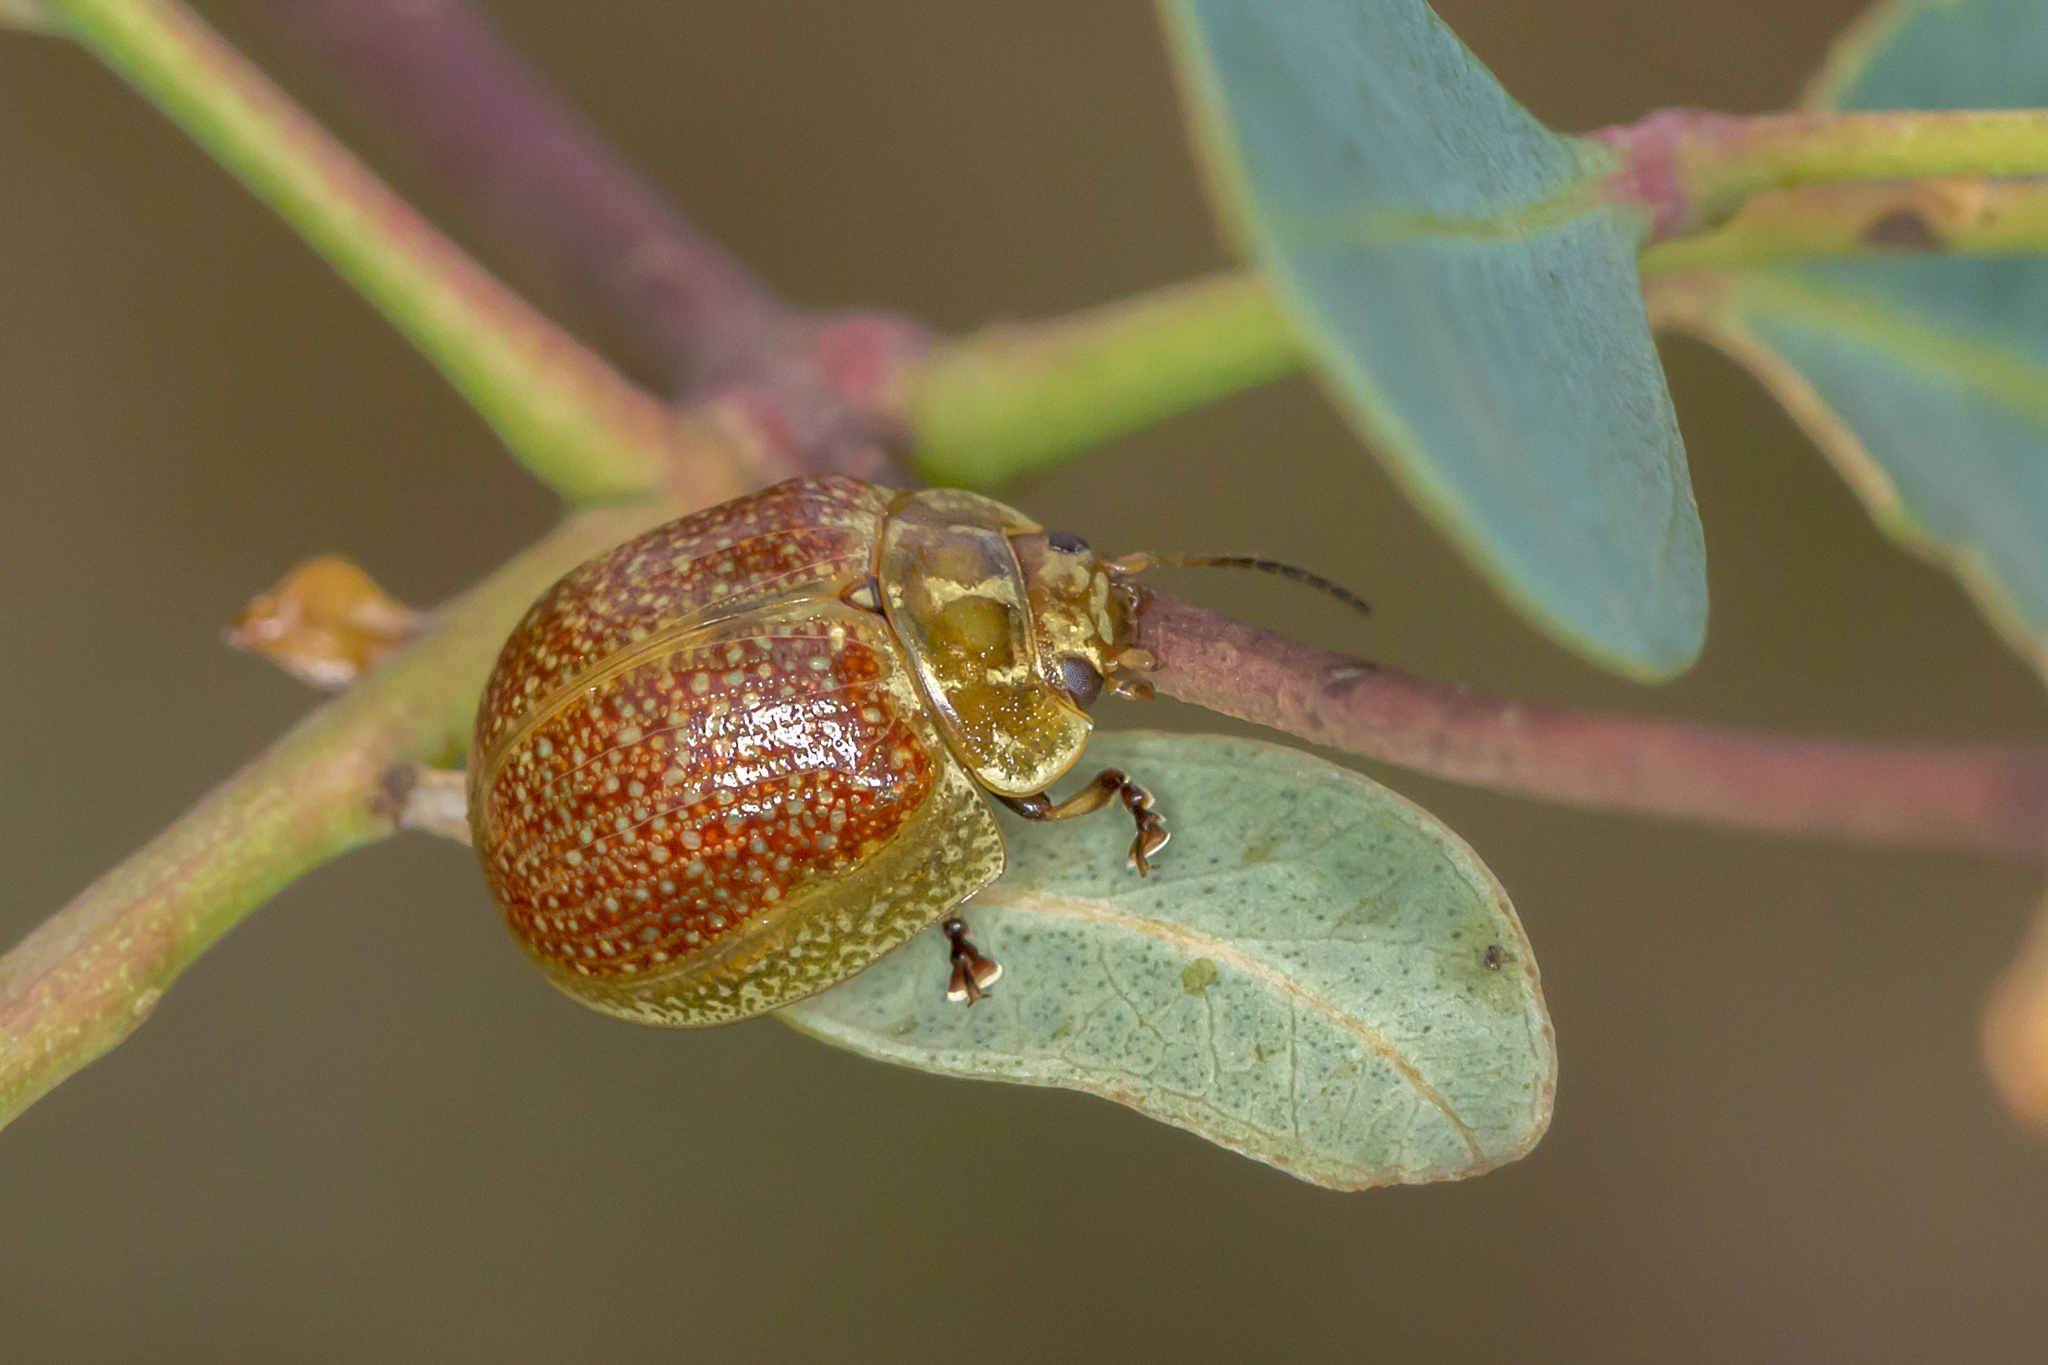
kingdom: Animalia
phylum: Arthropoda
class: Insecta
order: Coleoptera
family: Chrysomelidae
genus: Paropsisterna
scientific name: Paropsisterna cloelia
